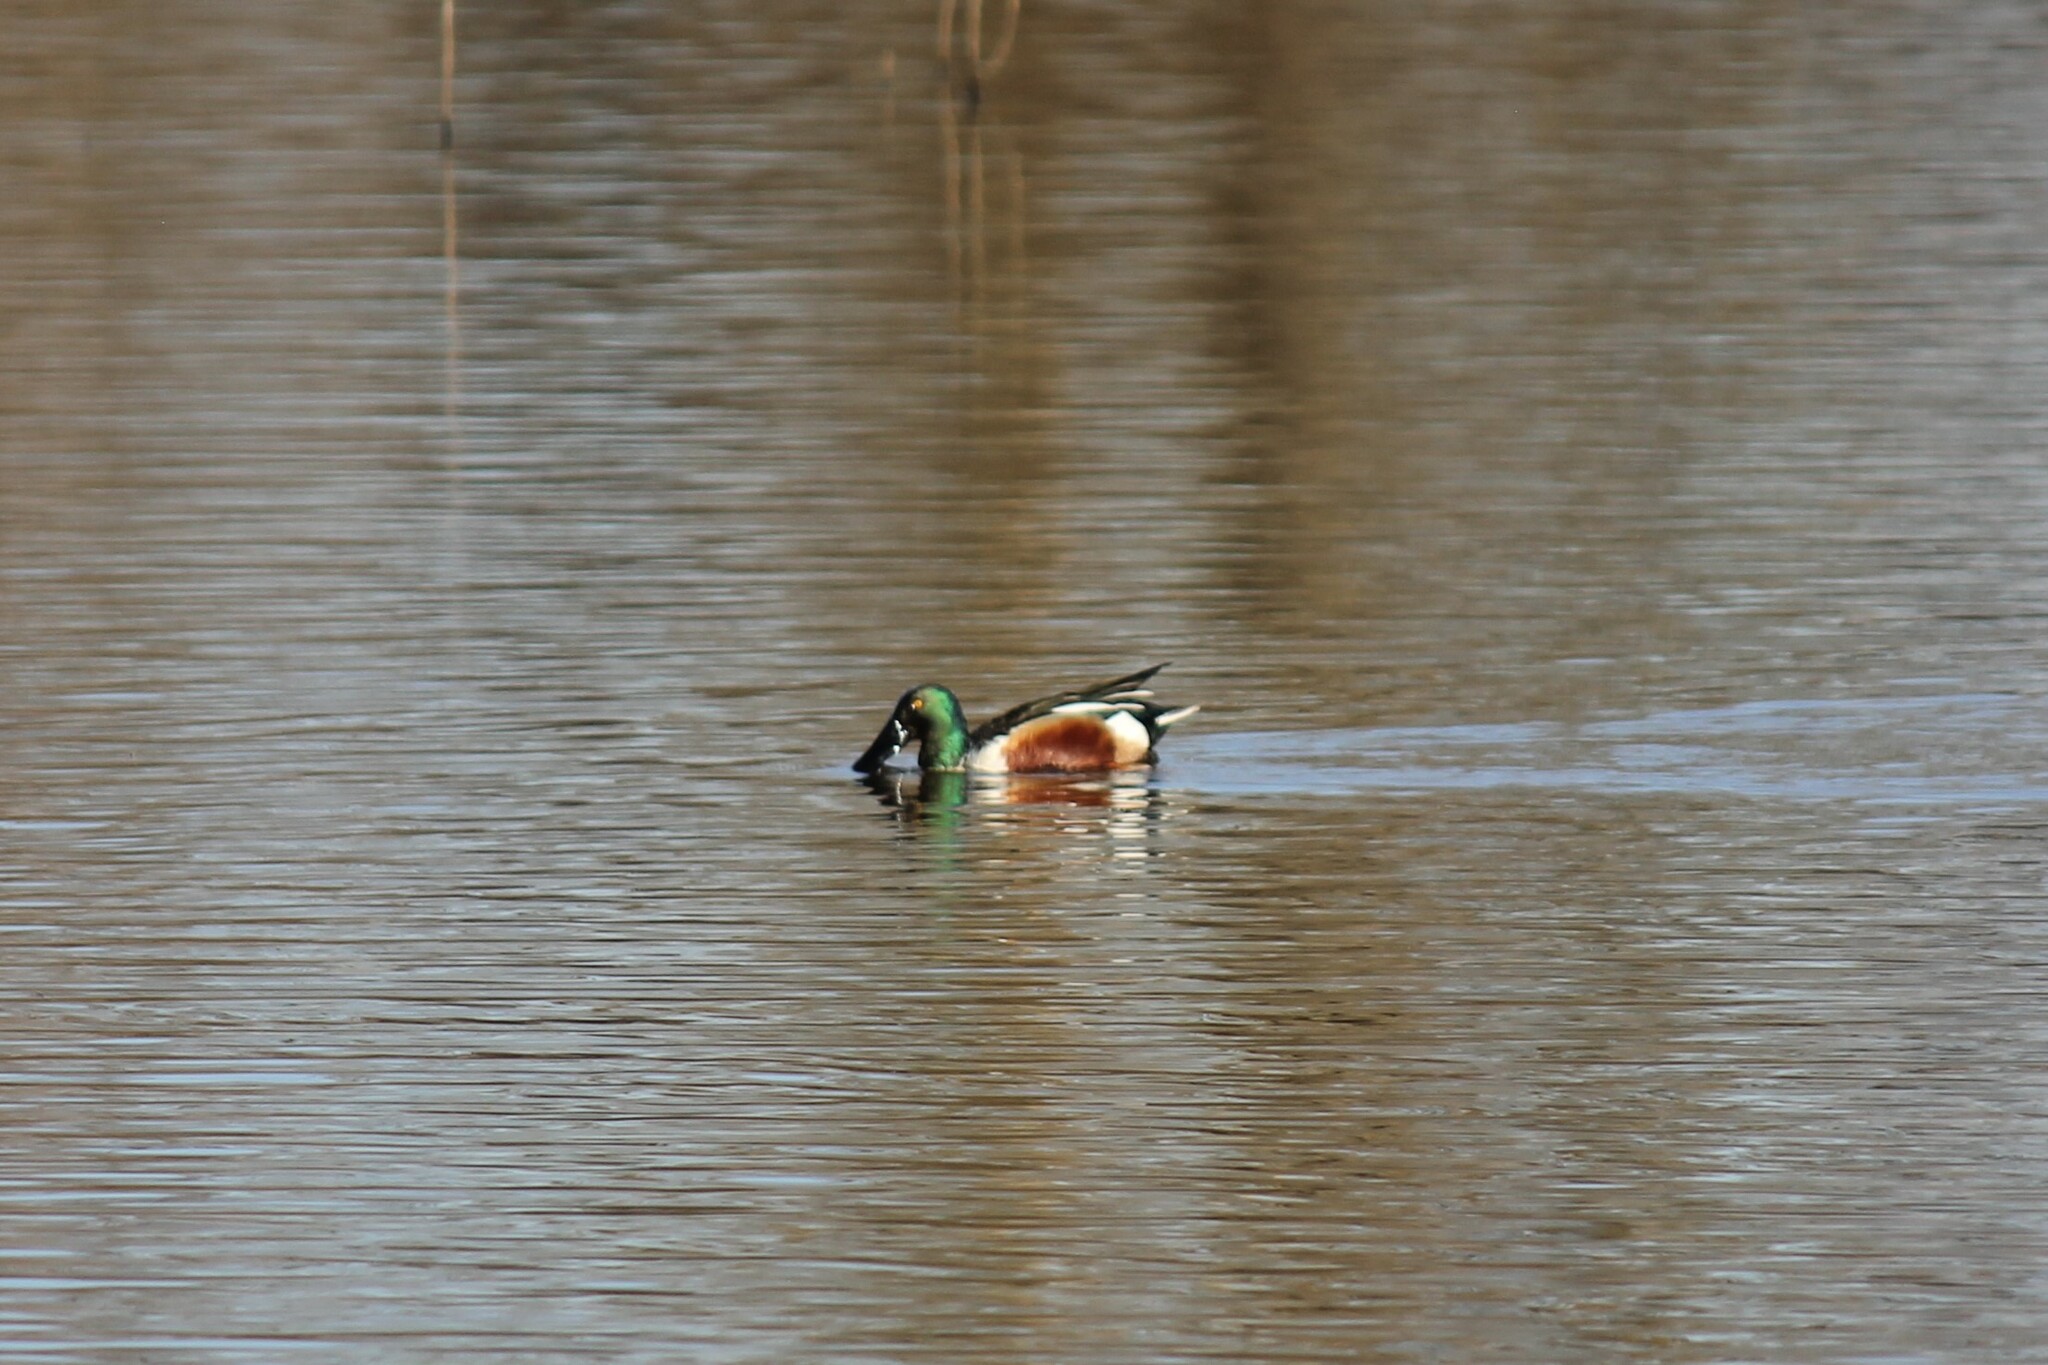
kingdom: Animalia
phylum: Chordata
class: Aves
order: Anseriformes
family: Anatidae
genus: Spatula
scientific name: Spatula clypeata
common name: Northern shoveler
